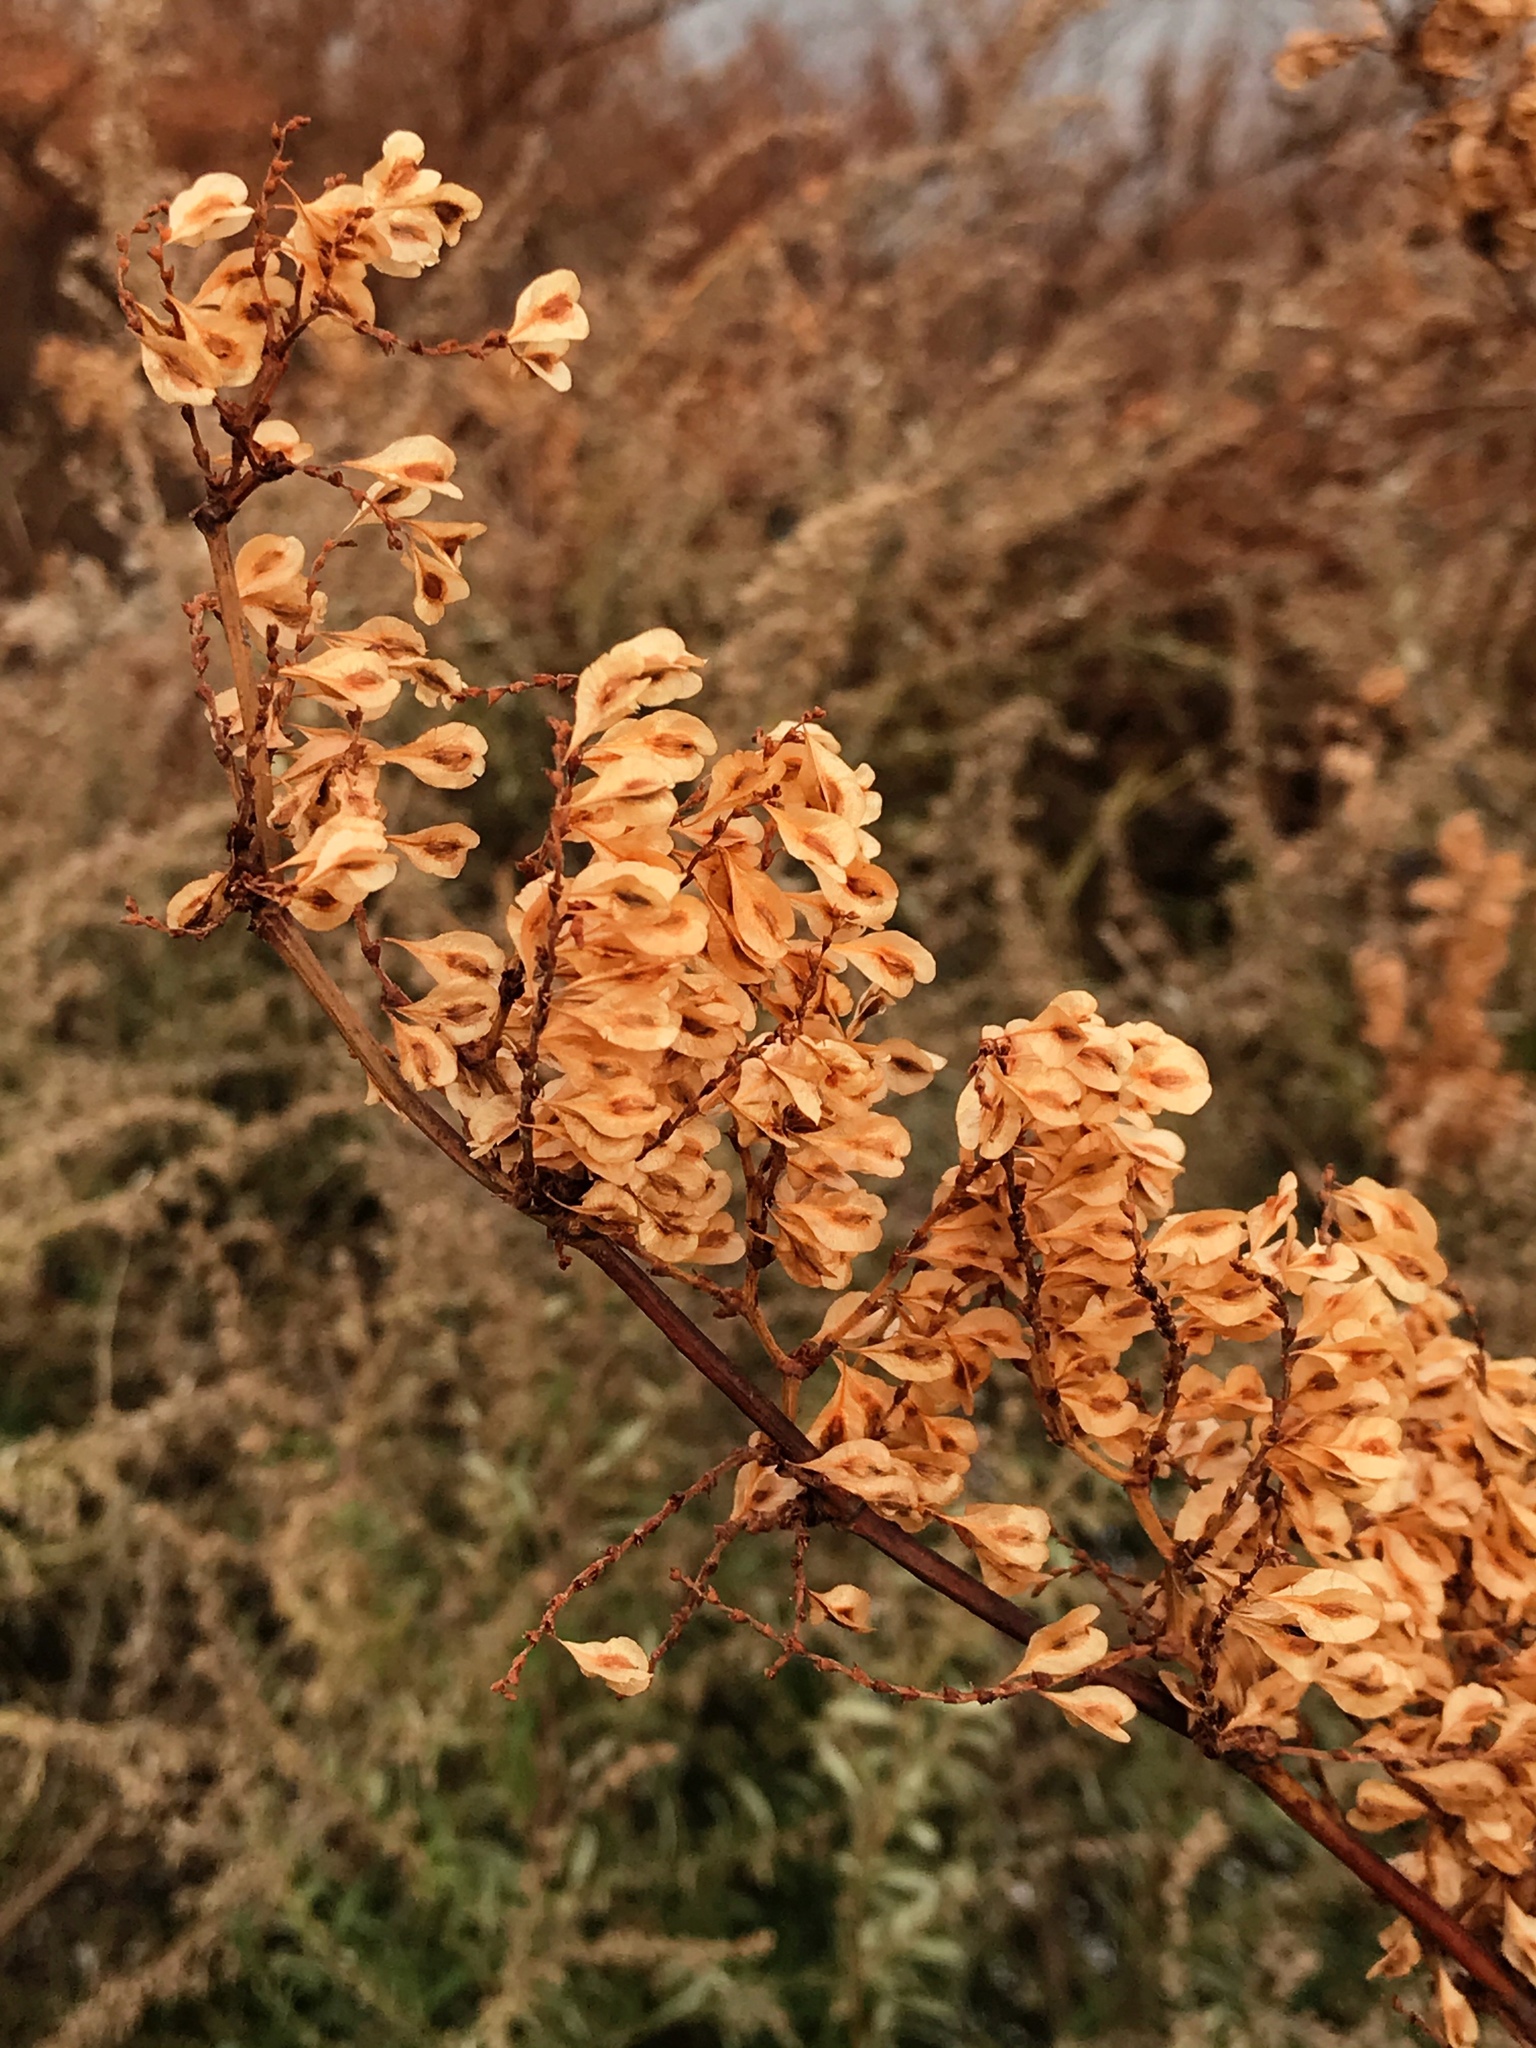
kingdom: Plantae
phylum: Tracheophyta
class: Magnoliopsida
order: Caryophyllales
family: Polygonaceae
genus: Reynoutria
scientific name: Reynoutria japonica
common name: Japanese knotweed
